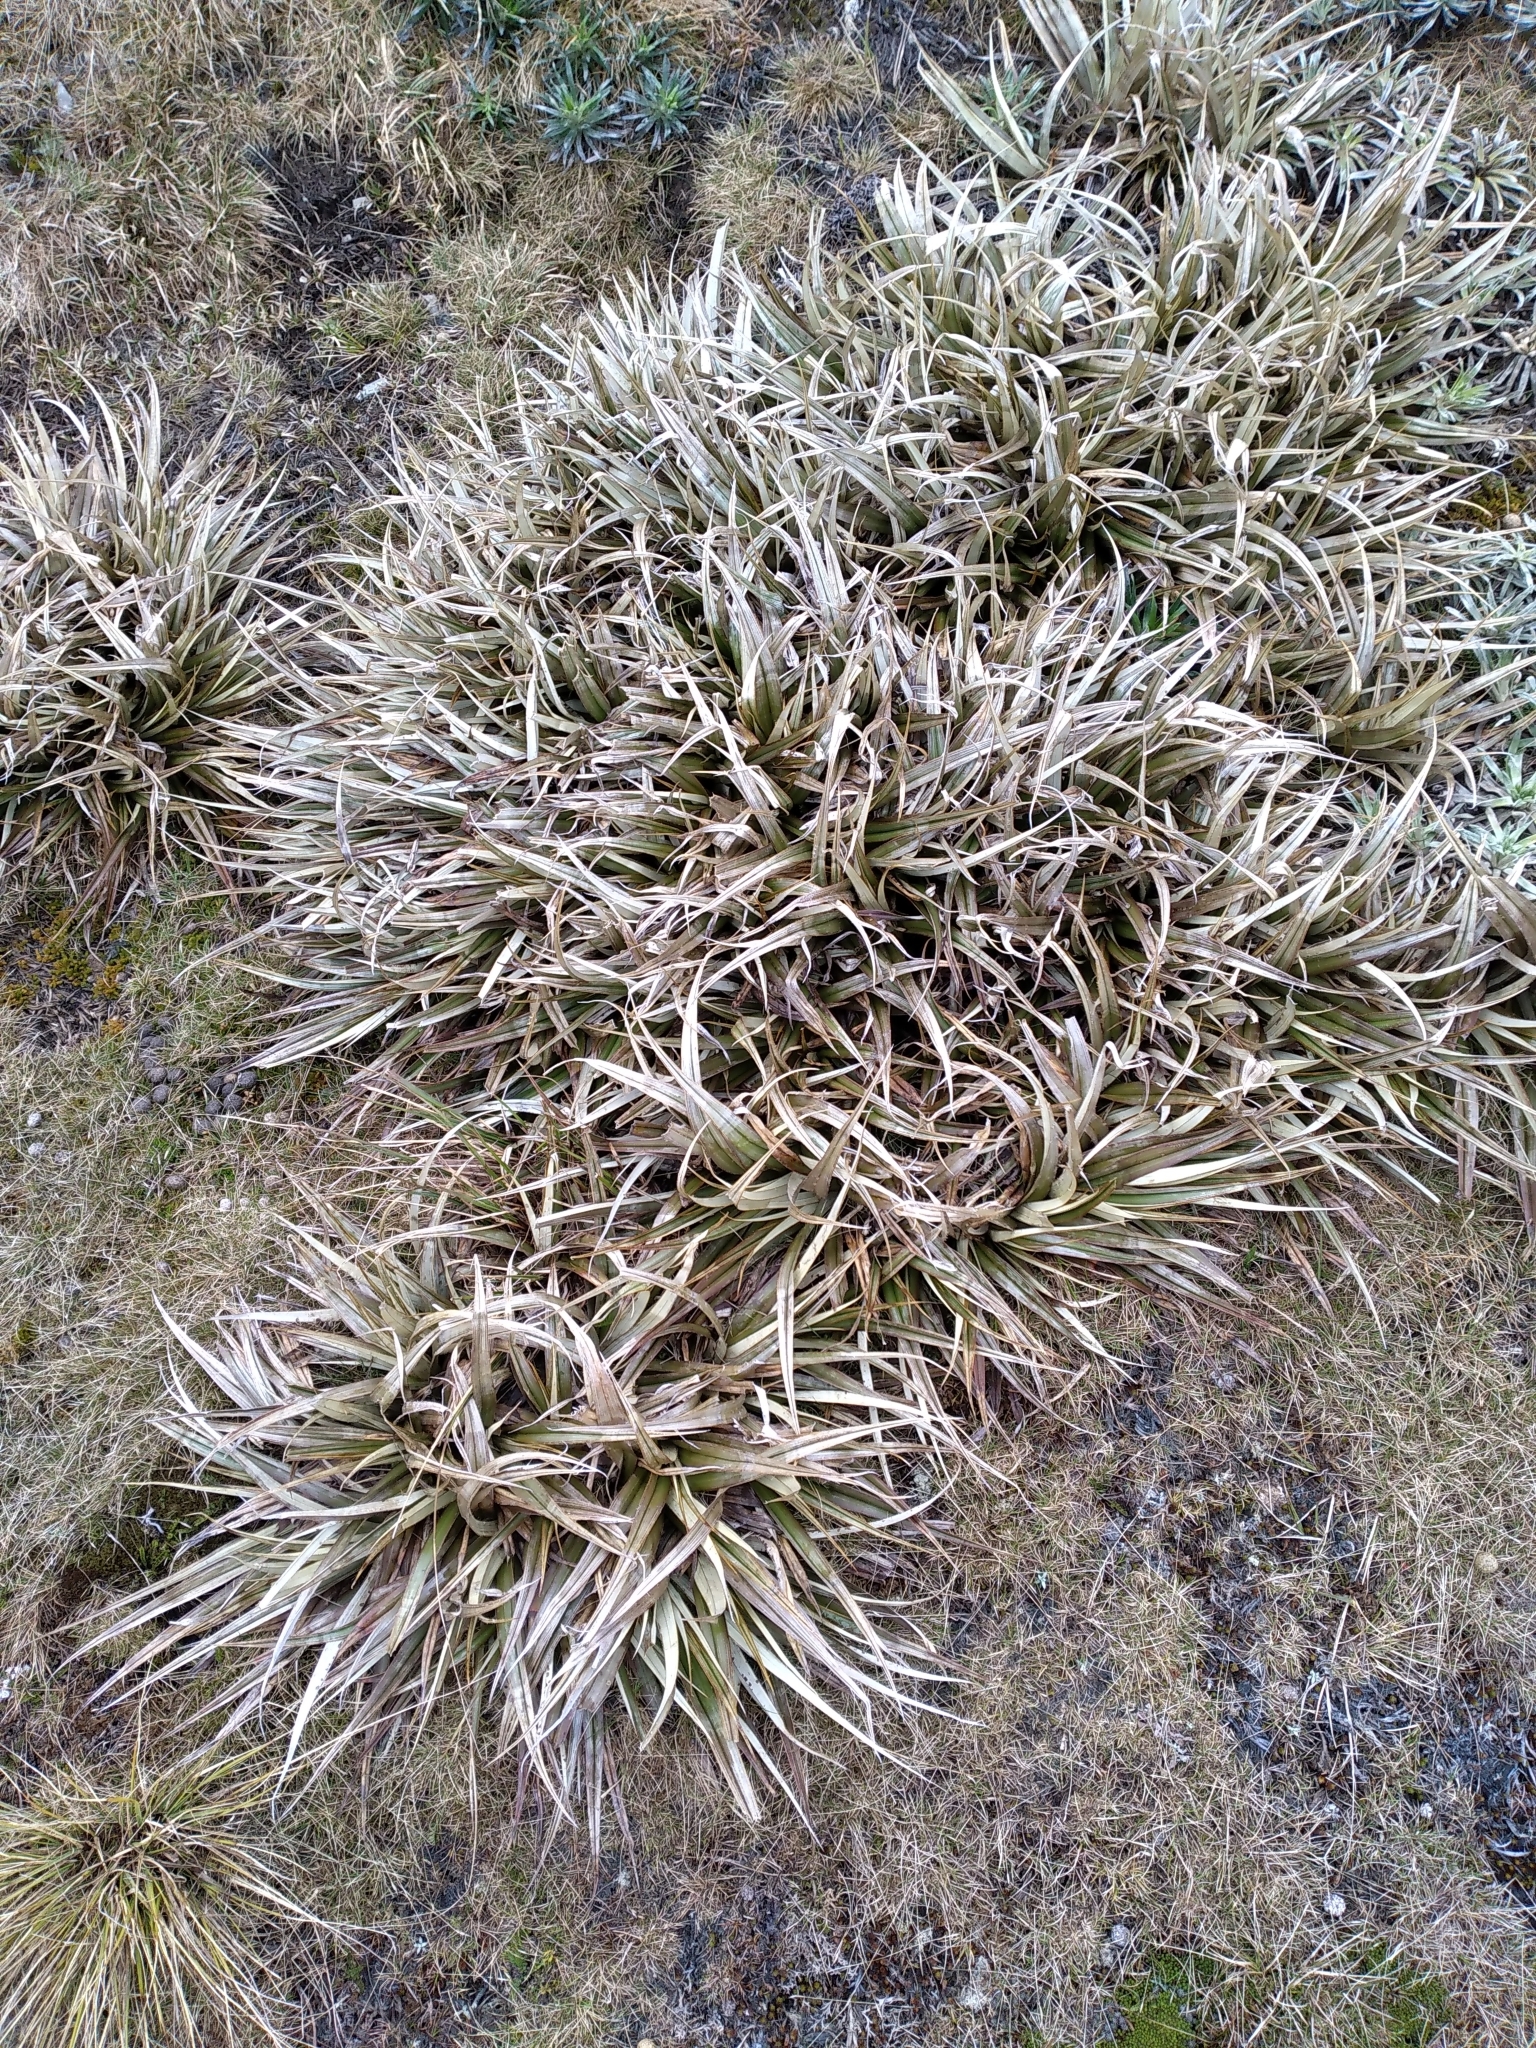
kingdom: Plantae
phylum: Tracheophyta
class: Liliopsida
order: Asparagales
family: Asteliaceae
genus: Astelia
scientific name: Astelia nivicola
